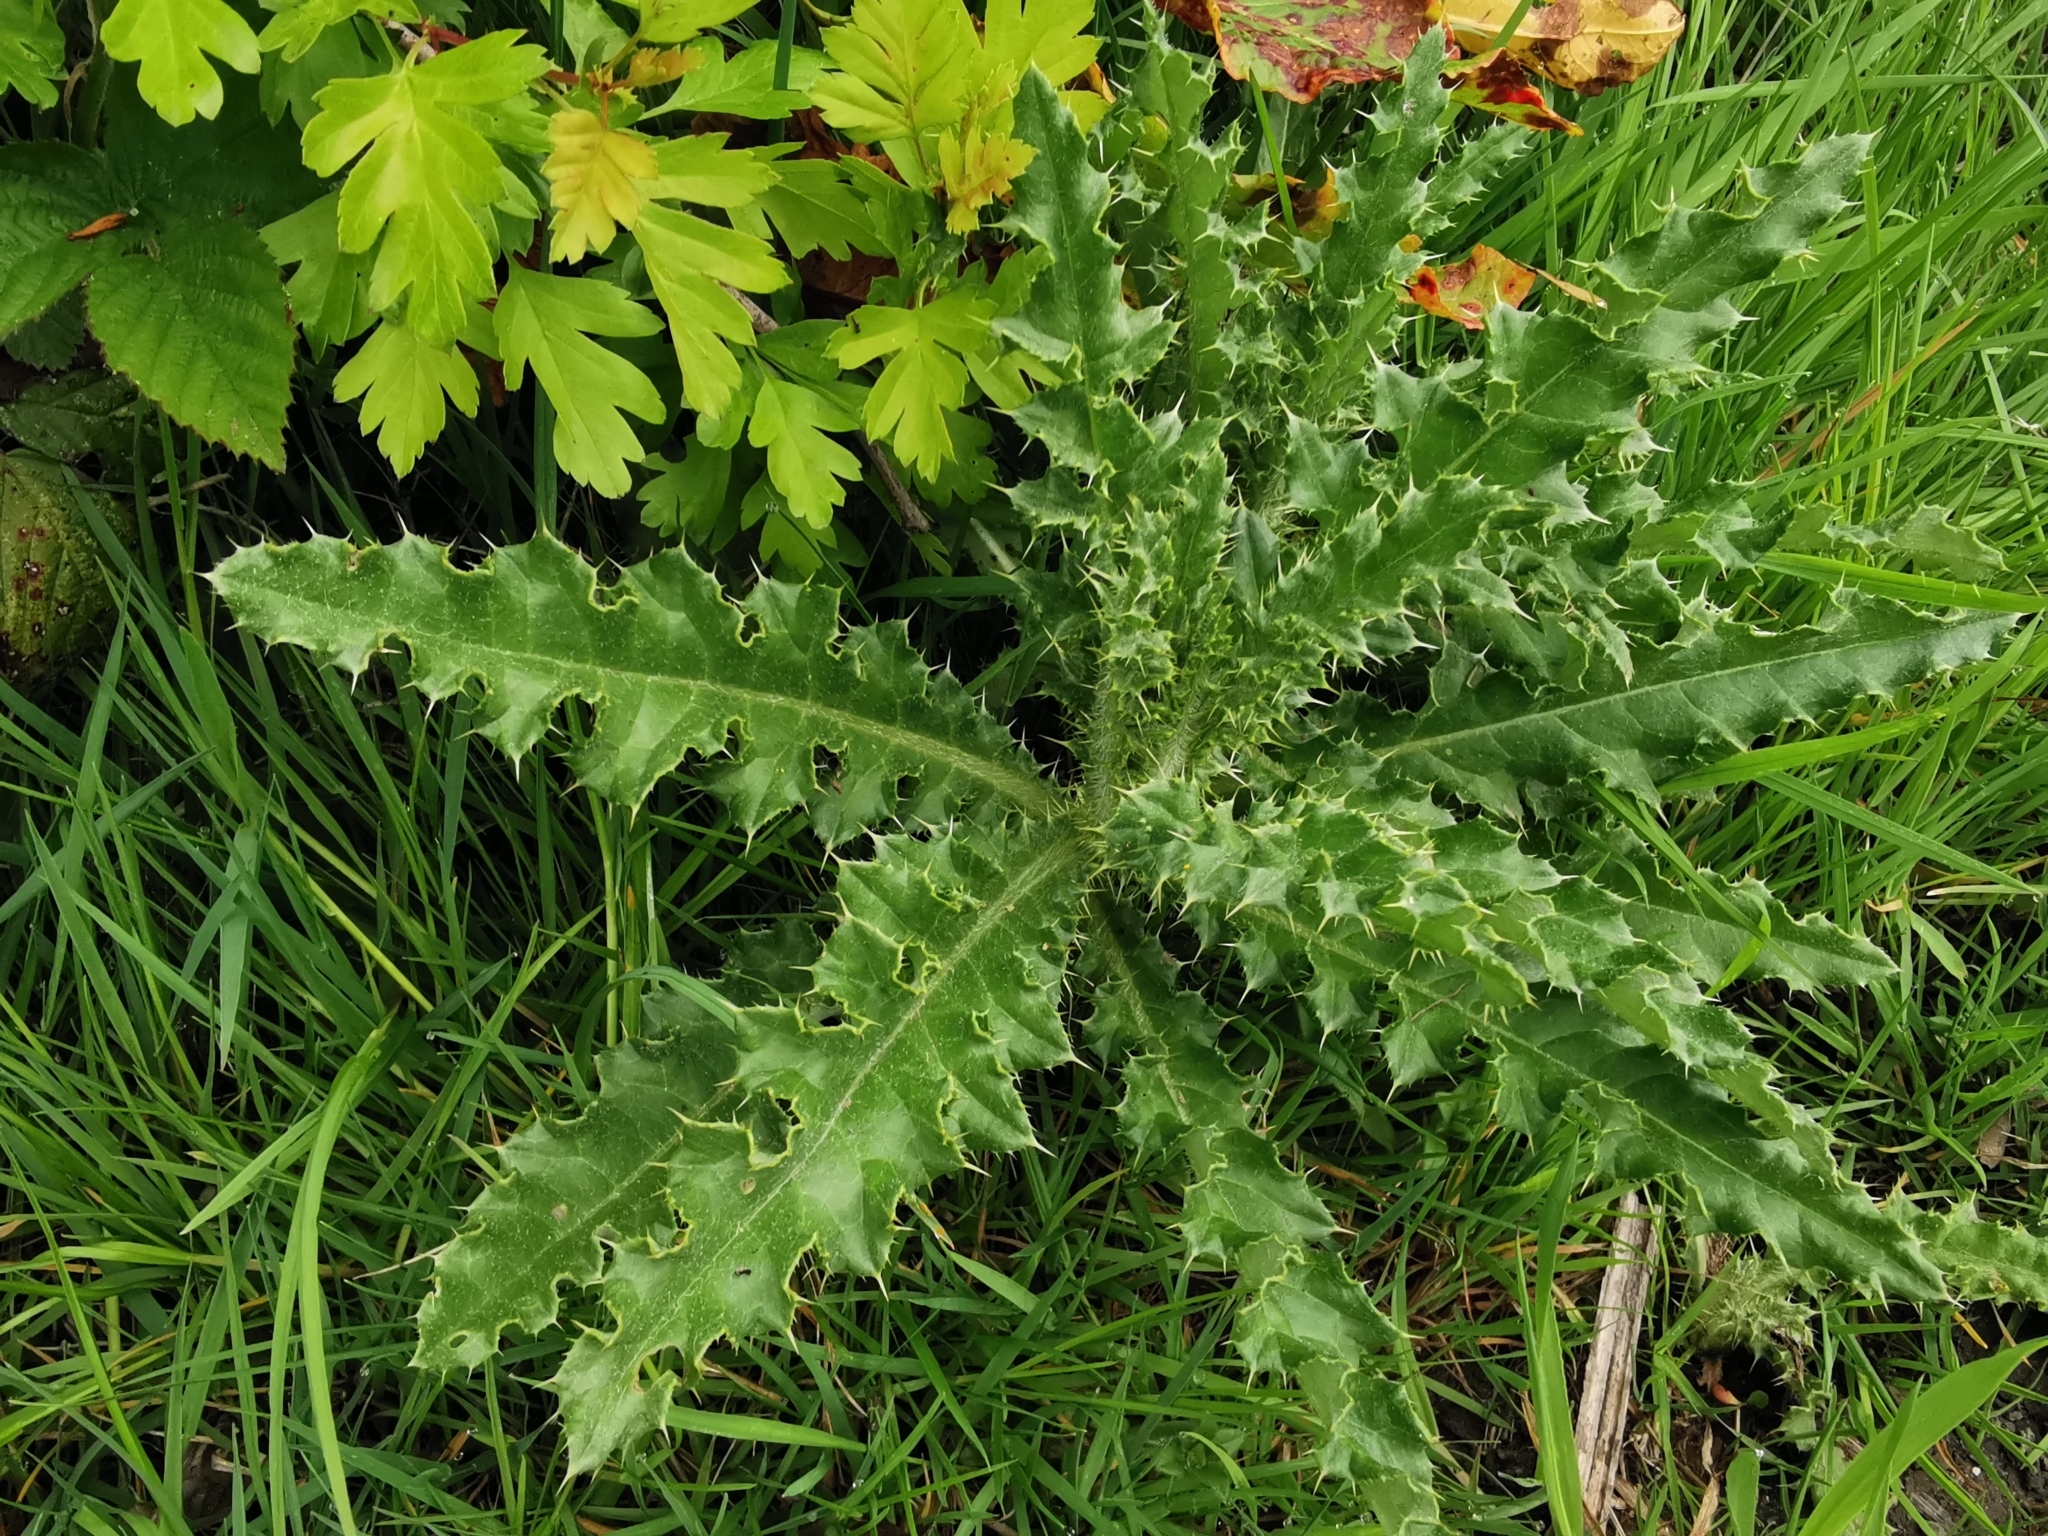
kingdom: Plantae
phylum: Tracheophyta
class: Magnoliopsida
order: Asterales
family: Asteraceae
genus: Cirsium
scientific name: Cirsium arvense
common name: Creeping thistle
